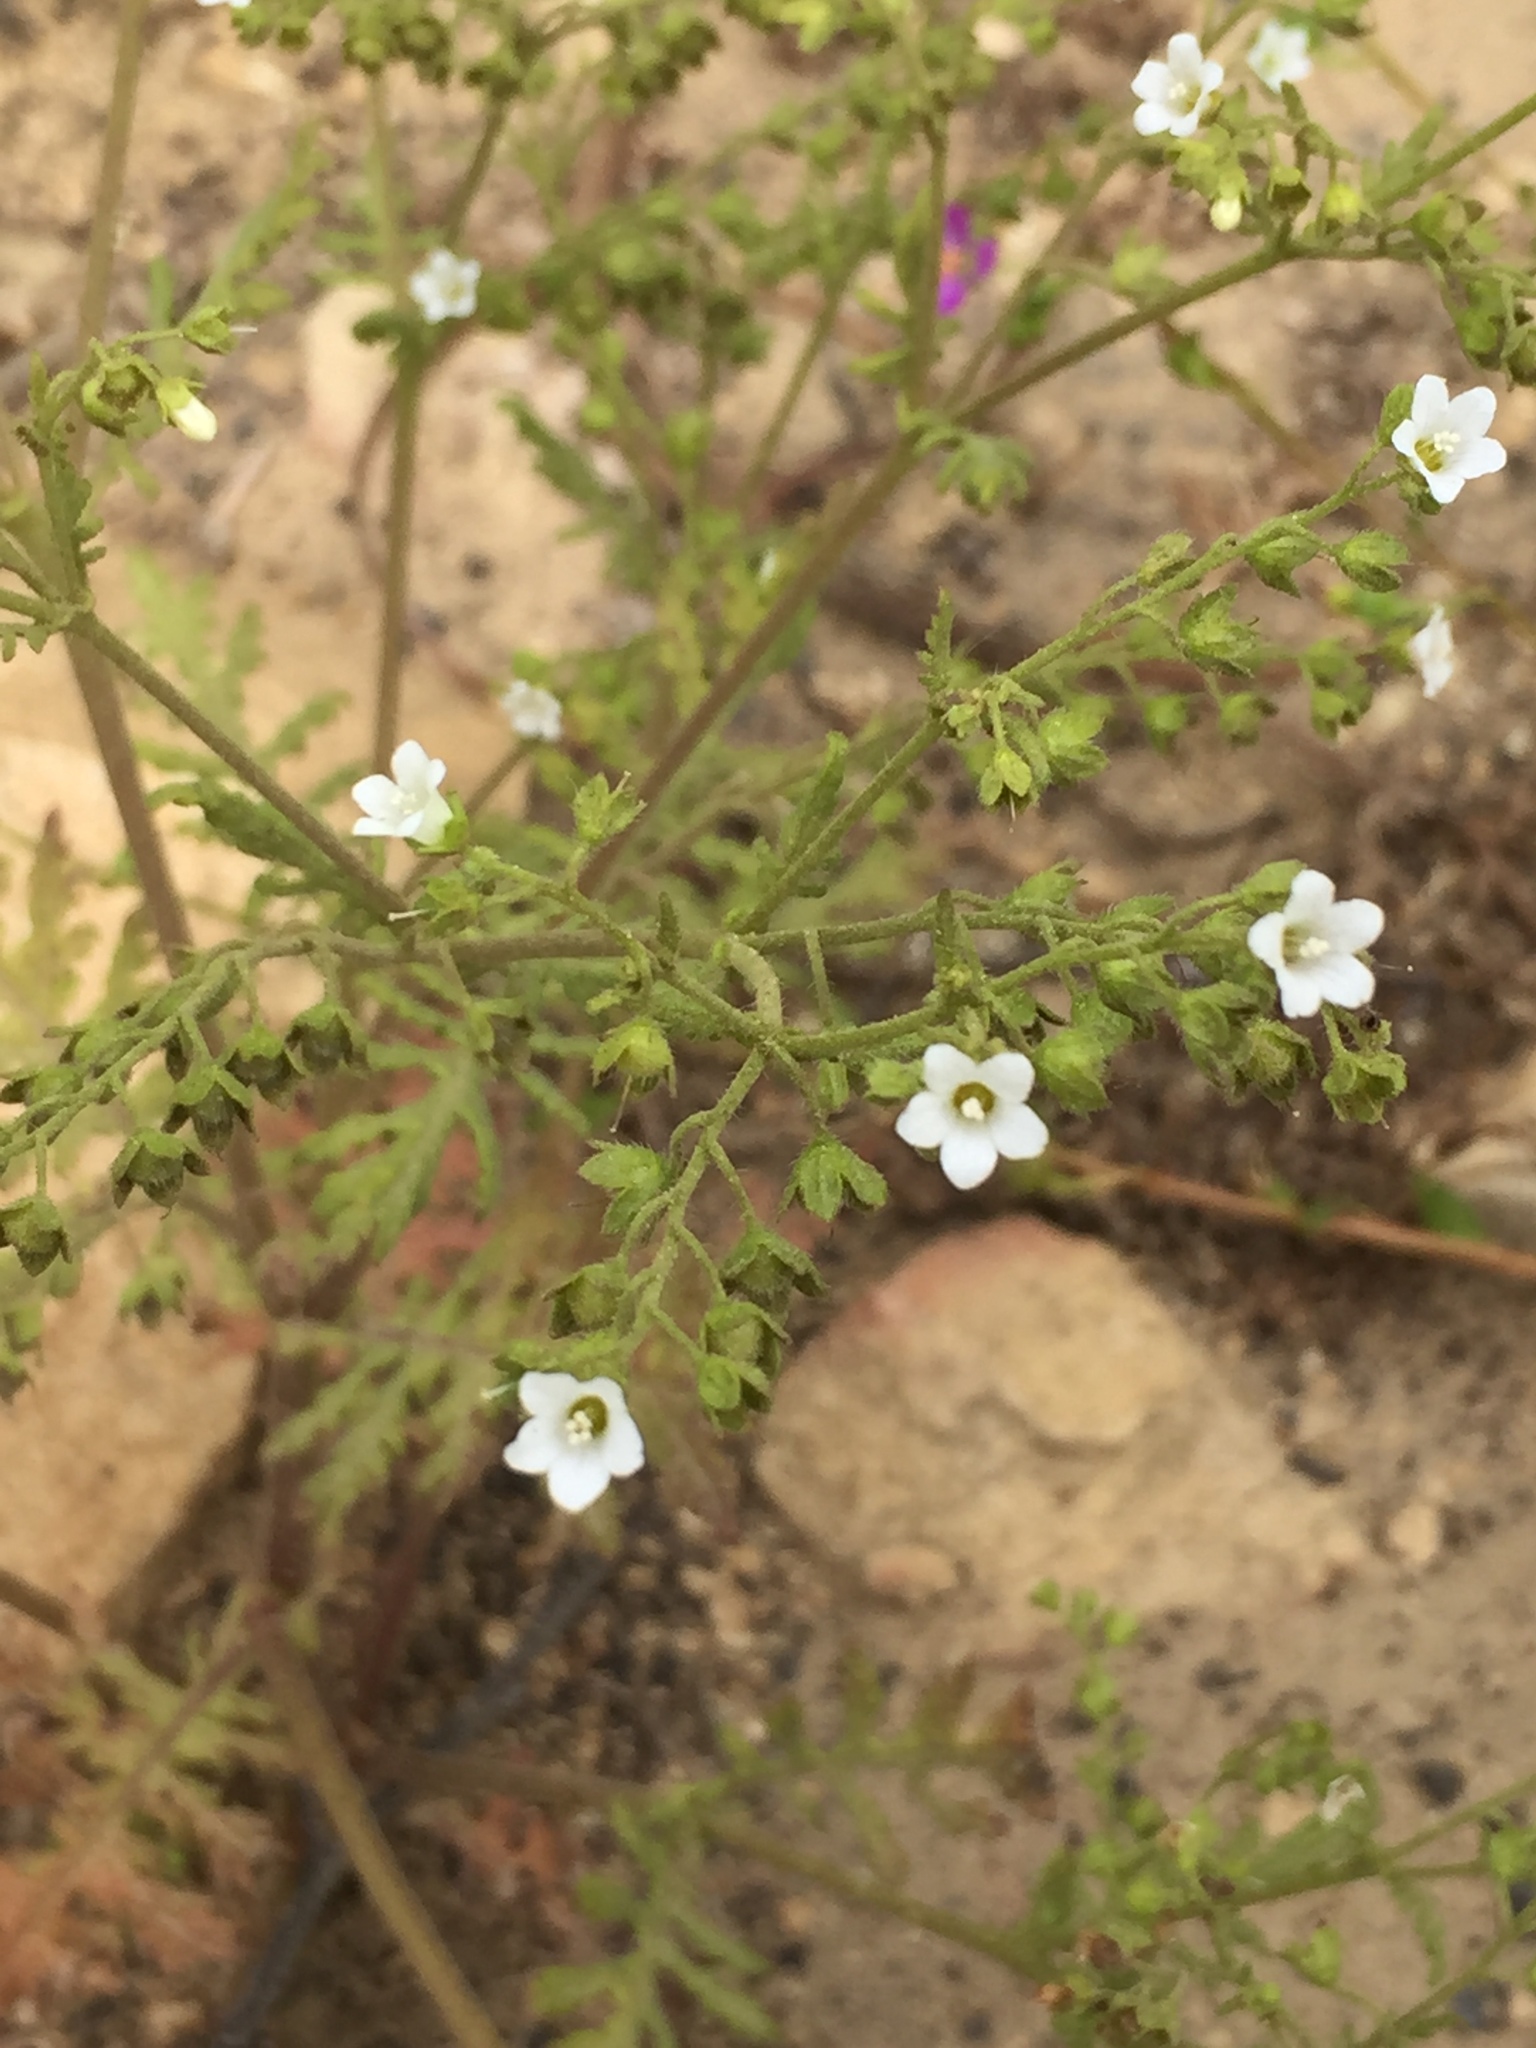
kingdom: Plantae
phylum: Tracheophyta
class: Magnoliopsida
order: Boraginales
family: Hydrophyllaceae
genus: Eucrypta
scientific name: Eucrypta chrysanthemifolia
